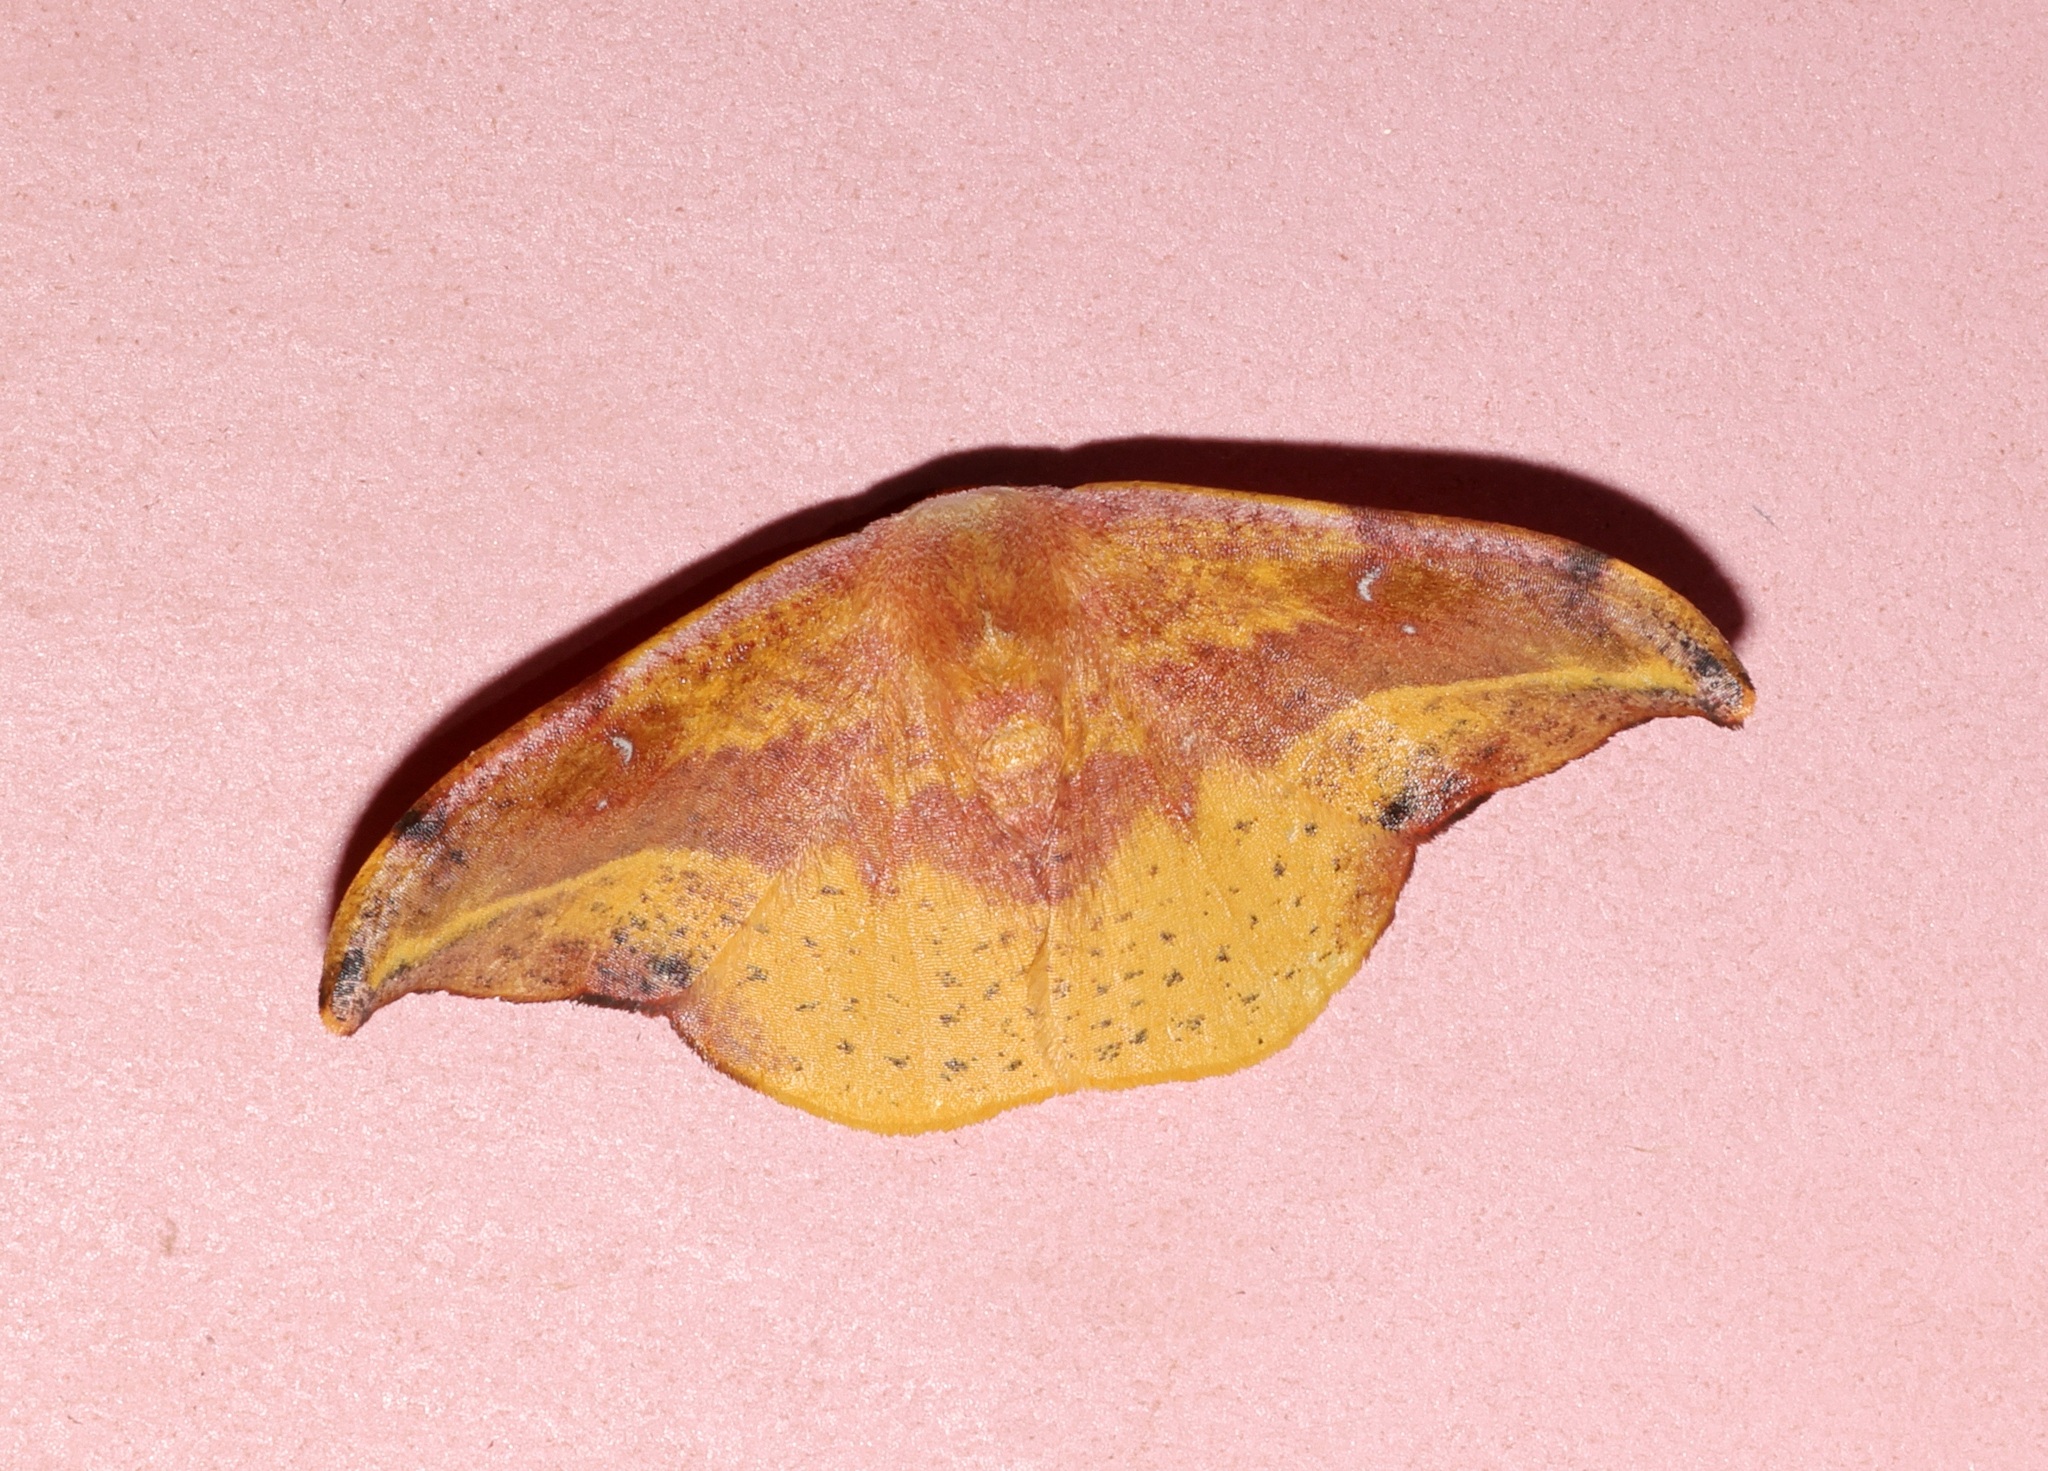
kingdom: Animalia
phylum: Arthropoda
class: Insecta
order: Lepidoptera
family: Drepanidae
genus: Oreta
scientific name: Oreta loochooana
